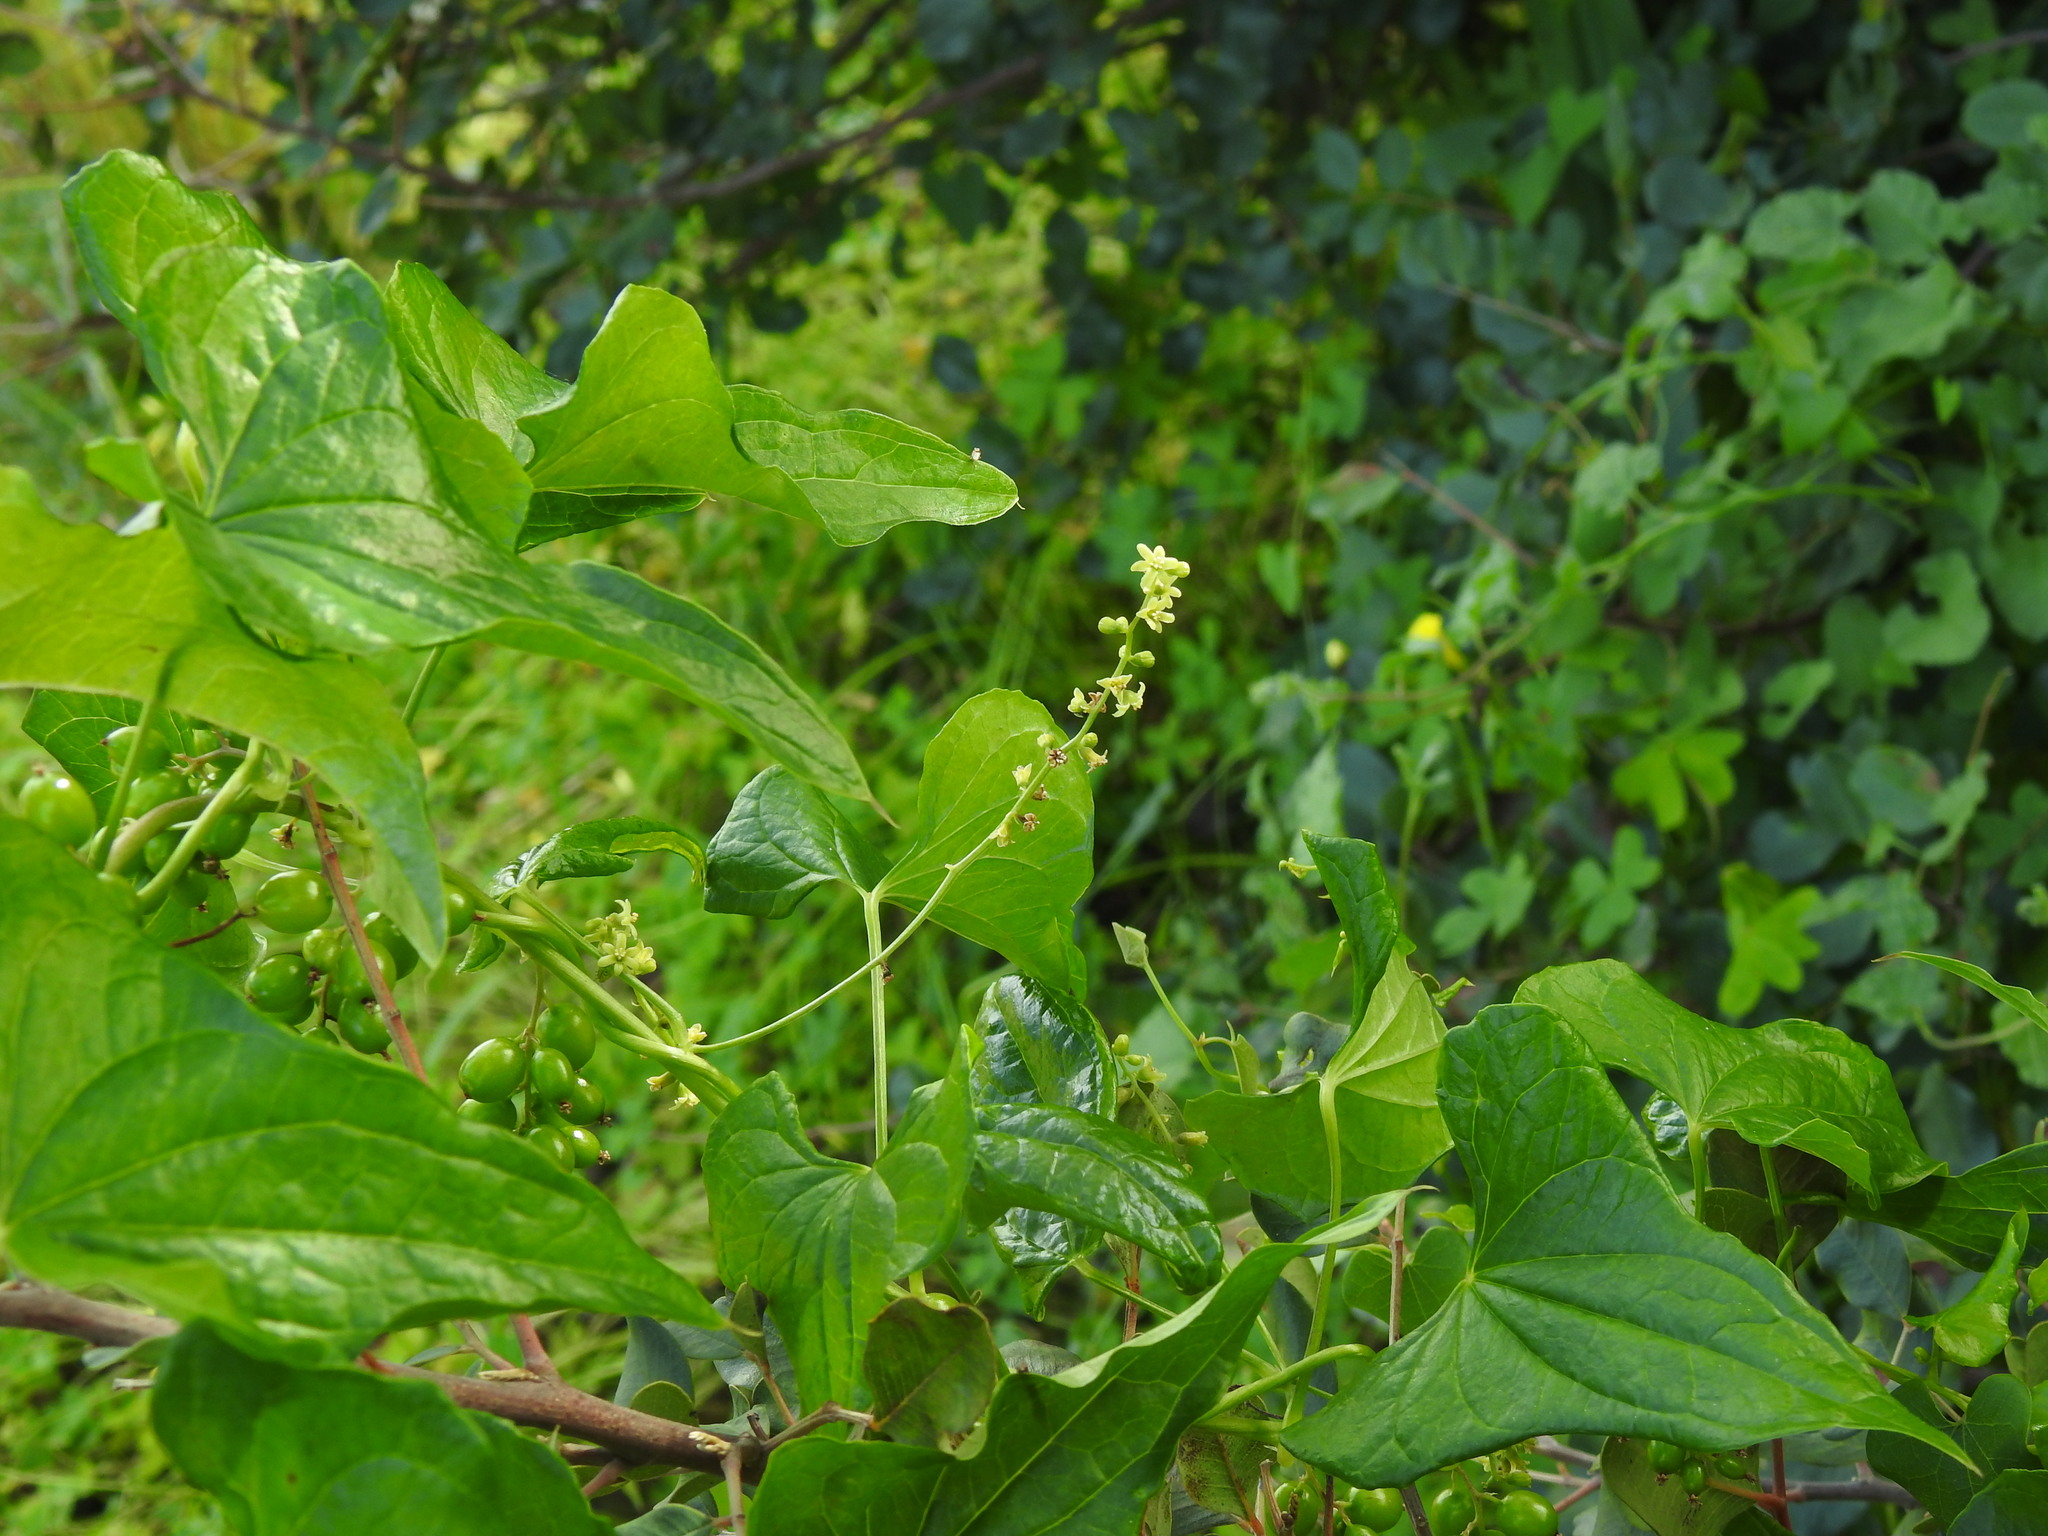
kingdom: Plantae
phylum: Tracheophyta
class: Liliopsida
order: Dioscoreales
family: Dioscoreaceae
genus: Dioscorea
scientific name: Dioscorea communis
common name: Black-bindweed
